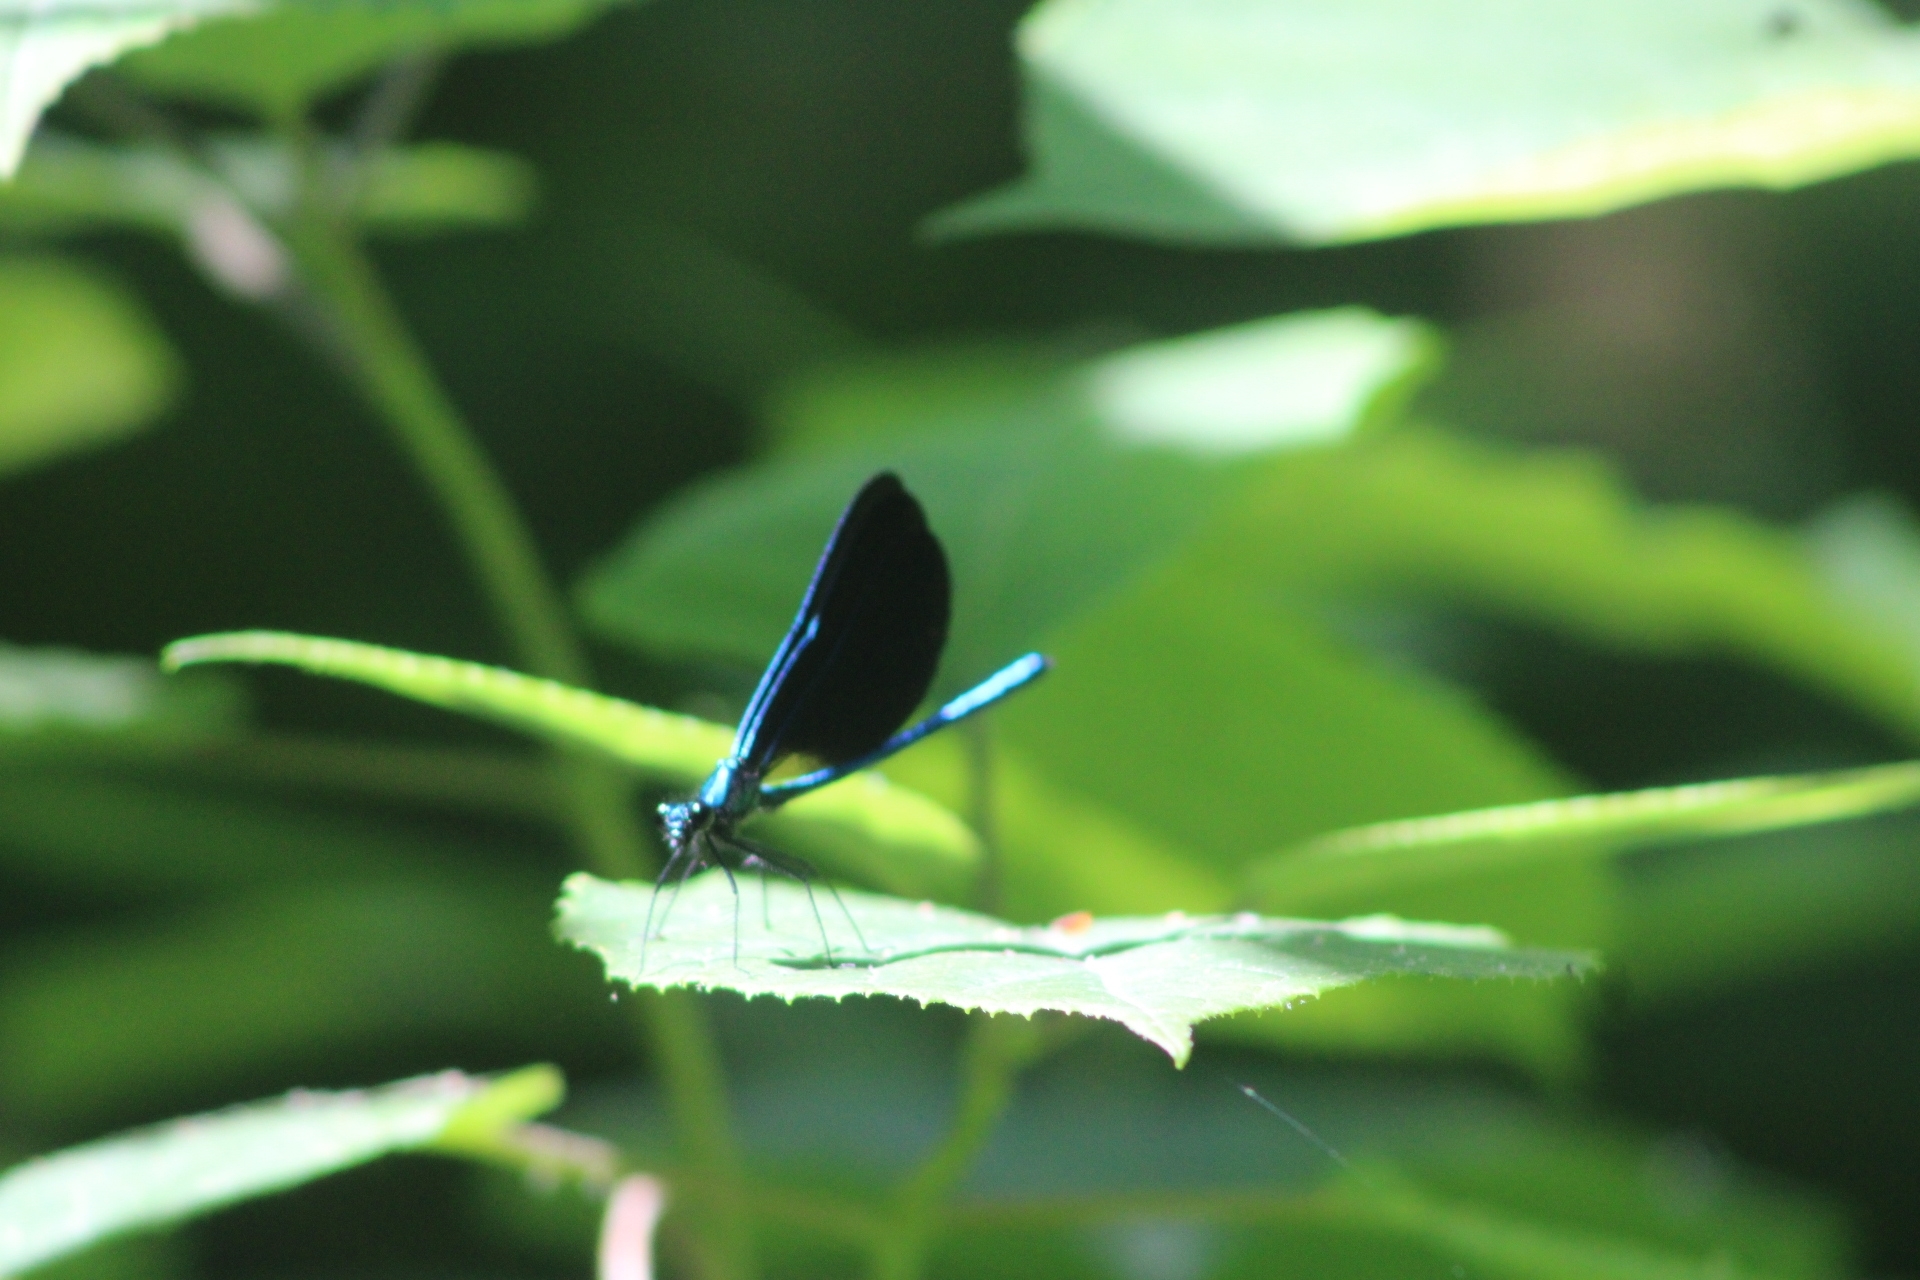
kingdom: Animalia
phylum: Arthropoda
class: Insecta
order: Odonata
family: Calopterygidae
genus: Calopteryx
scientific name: Calopteryx maculata
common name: Ebony jewelwing
